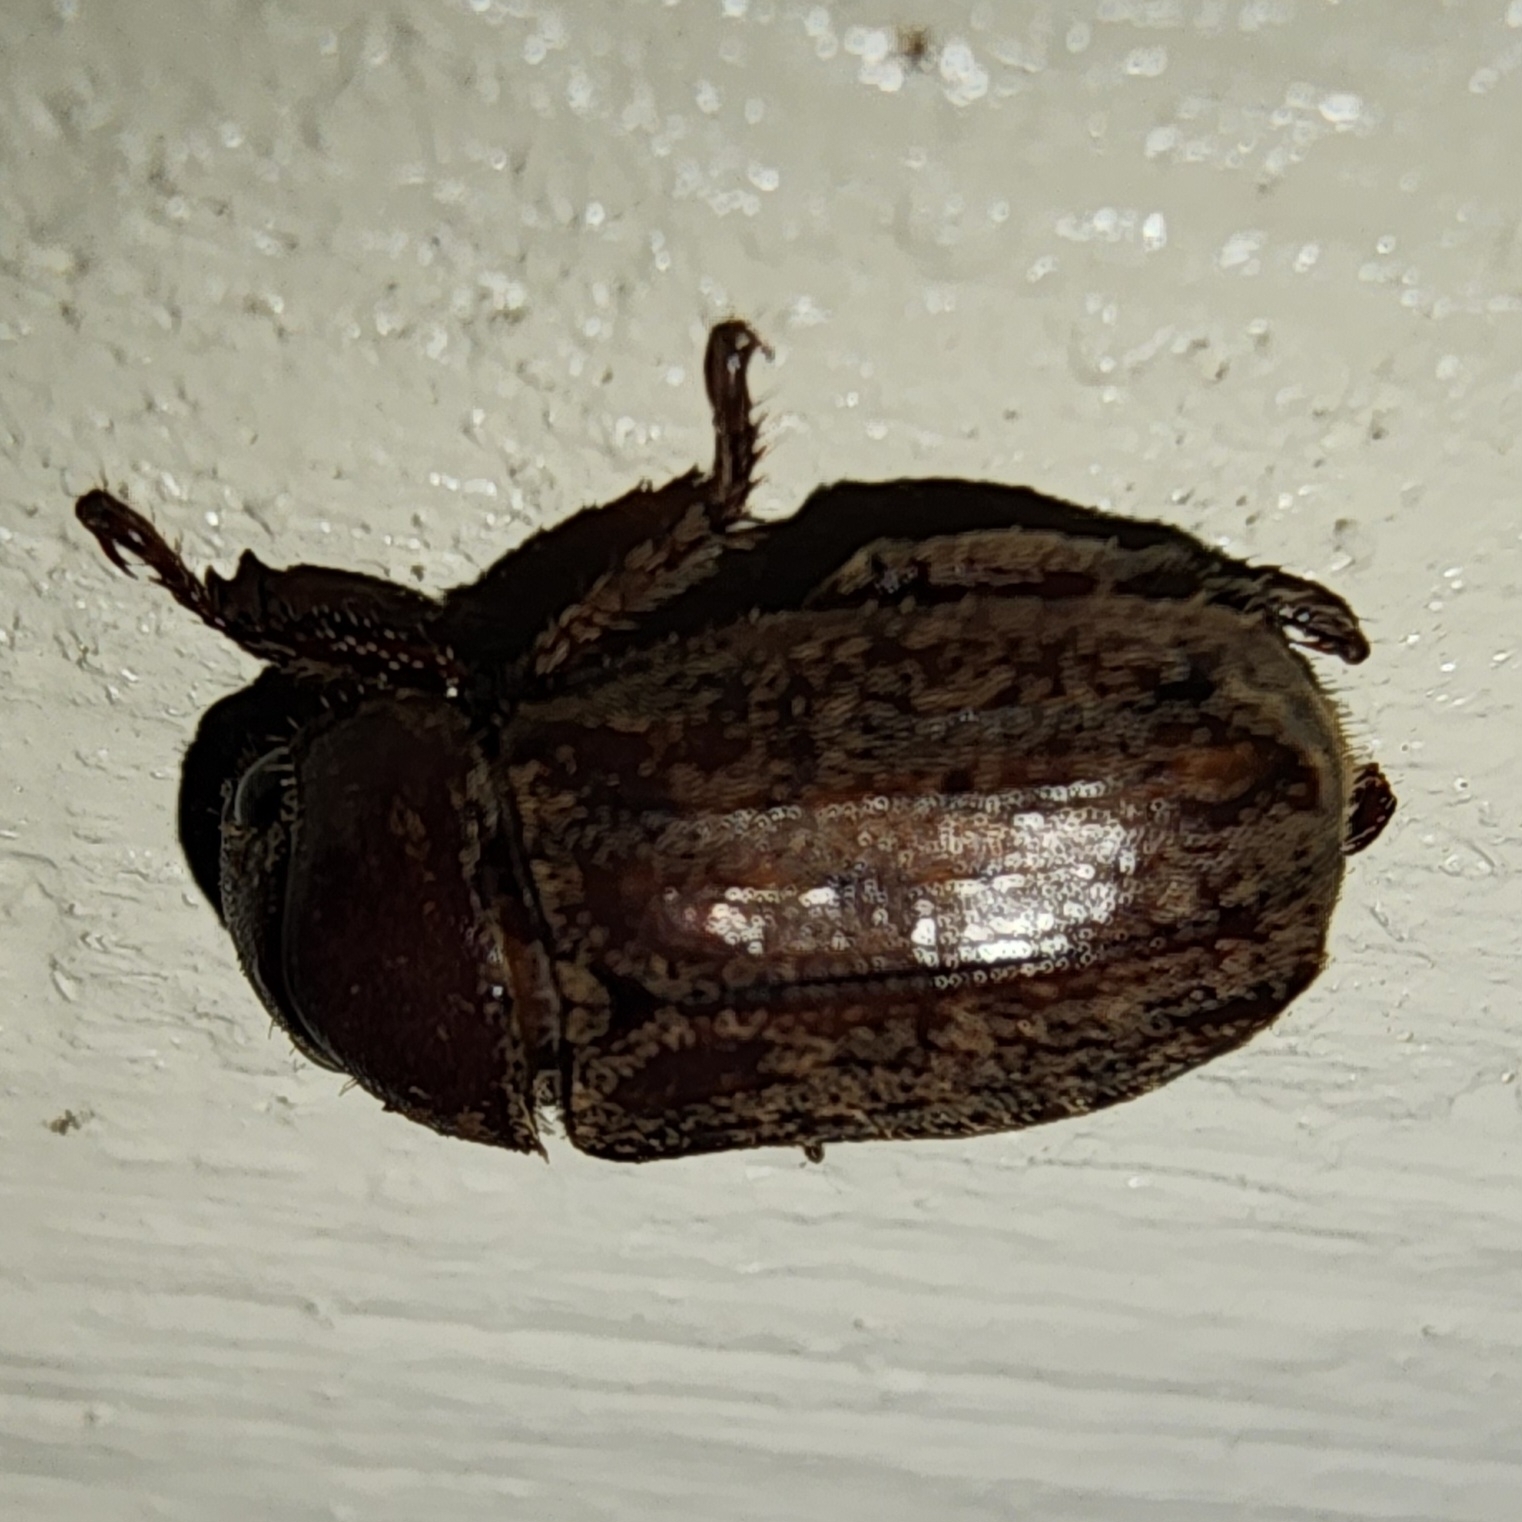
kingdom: Animalia
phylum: Arthropoda
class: Insecta
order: Coleoptera
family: Scarabaeidae
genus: Adoretus
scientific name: Adoretus sinicus
